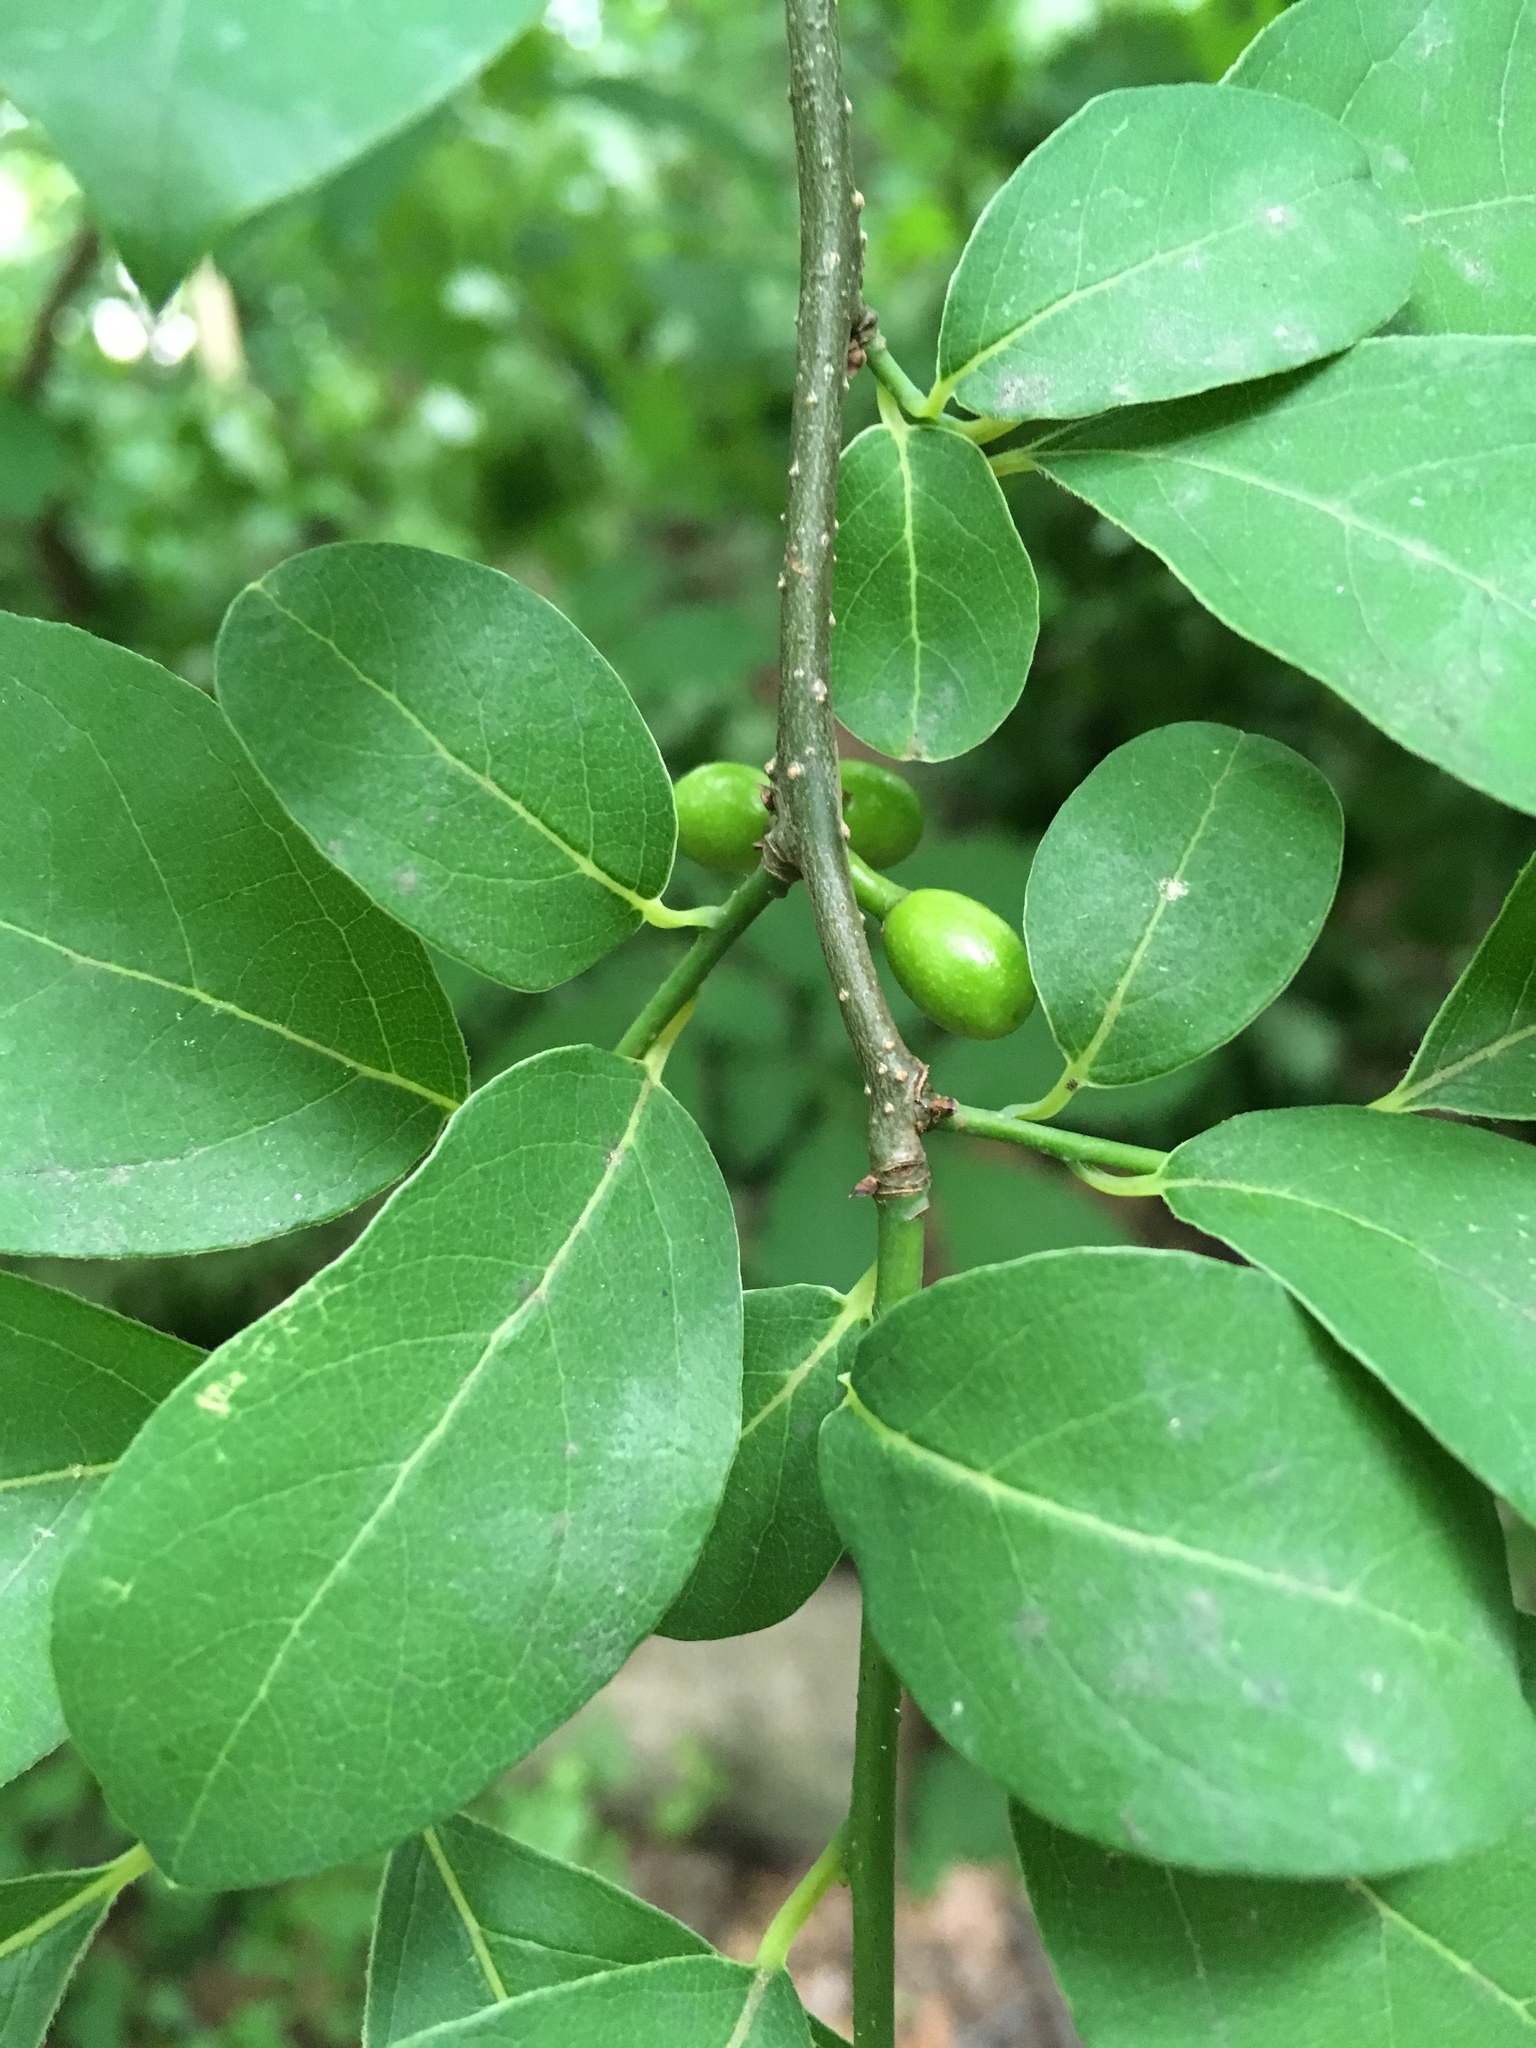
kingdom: Plantae
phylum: Tracheophyta
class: Magnoliopsida
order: Laurales
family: Lauraceae
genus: Lindera
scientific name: Lindera benzoin
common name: Spicebush
